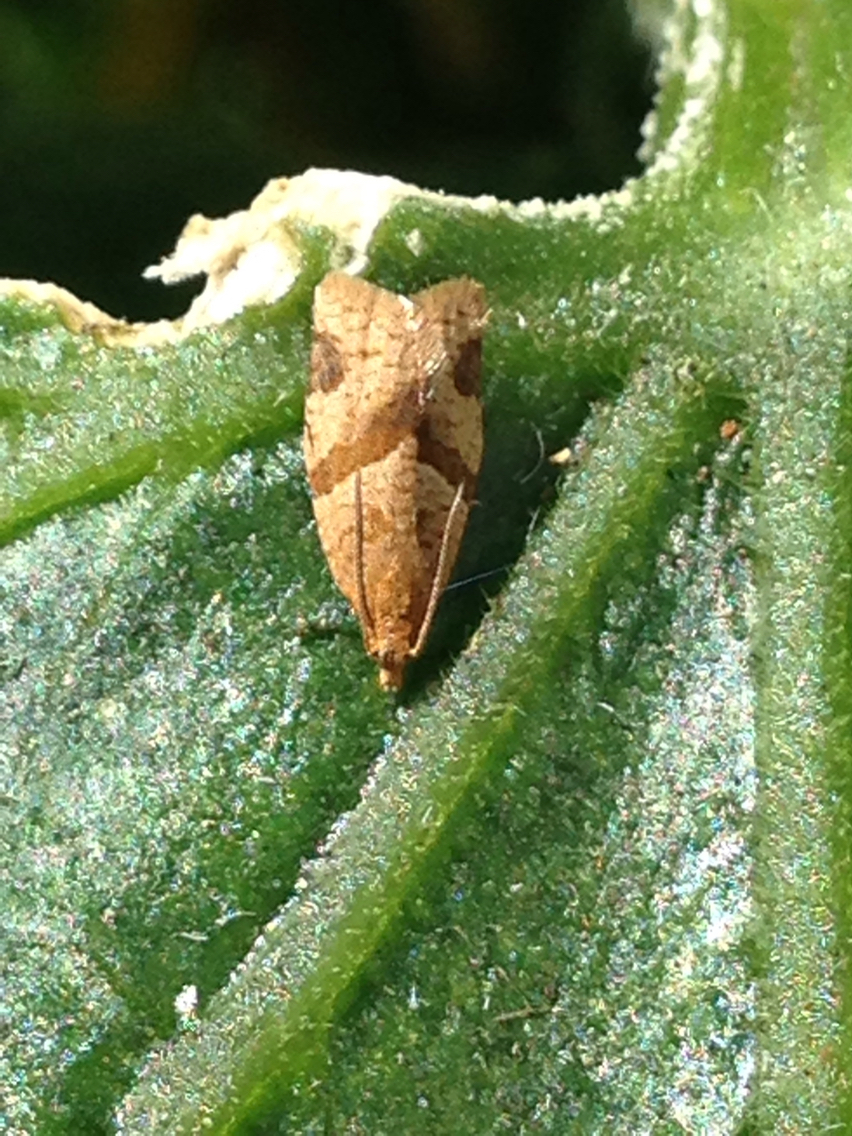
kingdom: Animalia
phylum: Arthropoda
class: Insecta
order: Lepidoptera
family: Tortricidae
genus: Clepsis
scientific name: Clepsis peritana
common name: Garden tortrix
